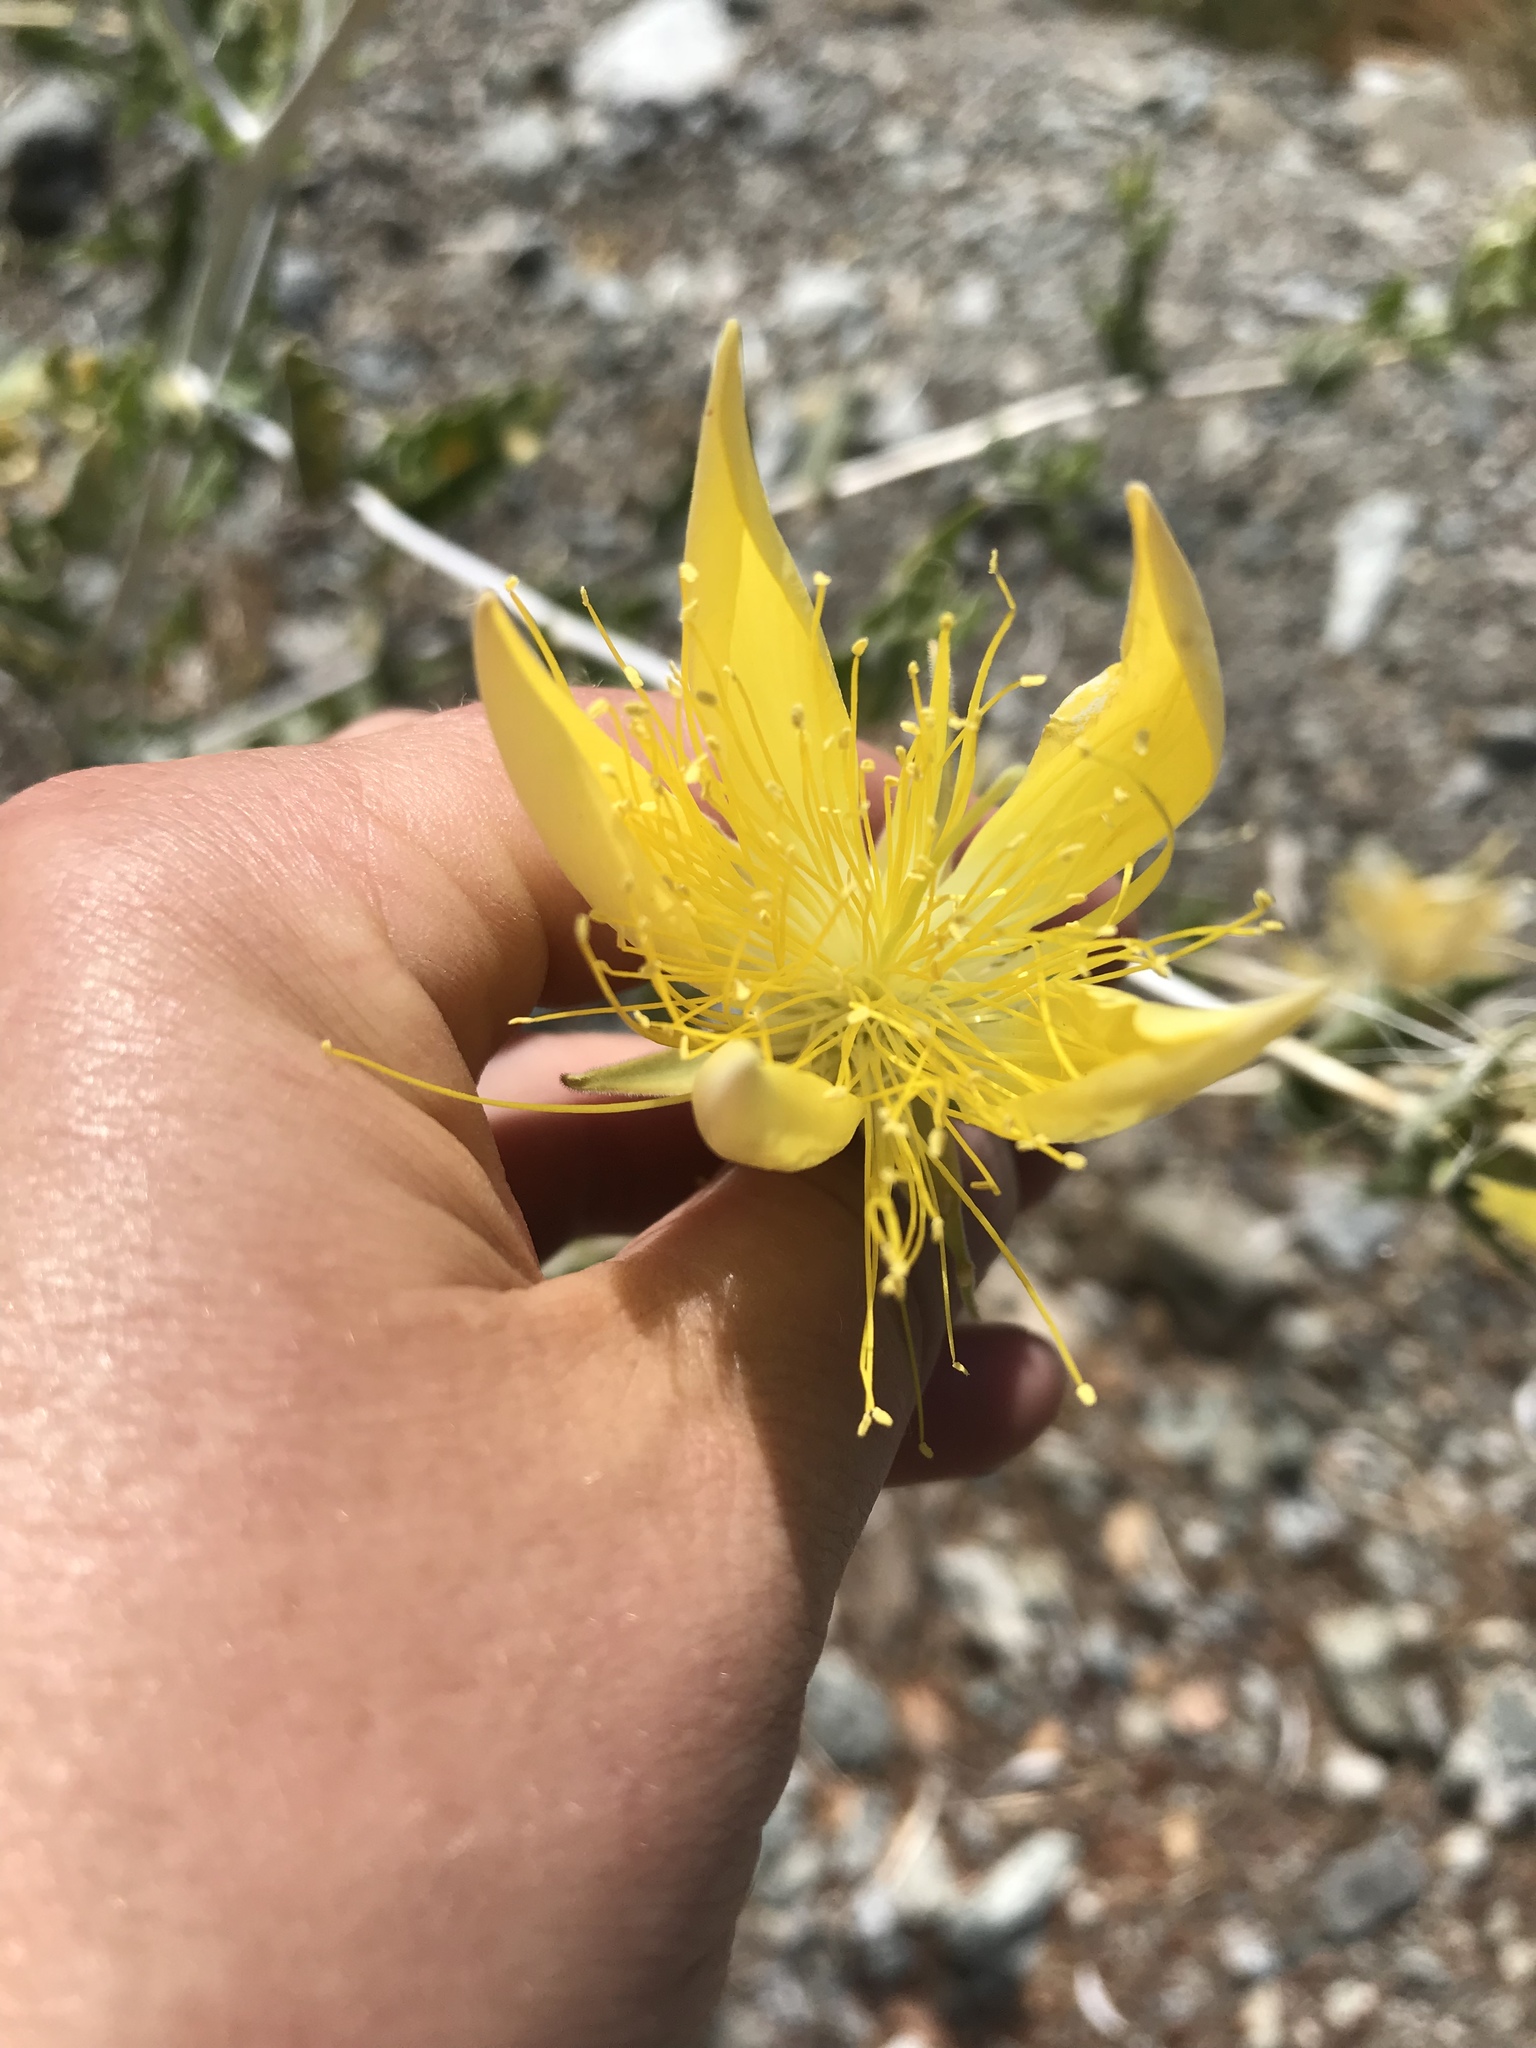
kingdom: Plantae
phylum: Tracheophyta
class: Magnoliopsida
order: Cornales
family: Loasaceae
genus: Mentzelia
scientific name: Mentzelia laevicaulis
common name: Smooth-stem blazingstar
